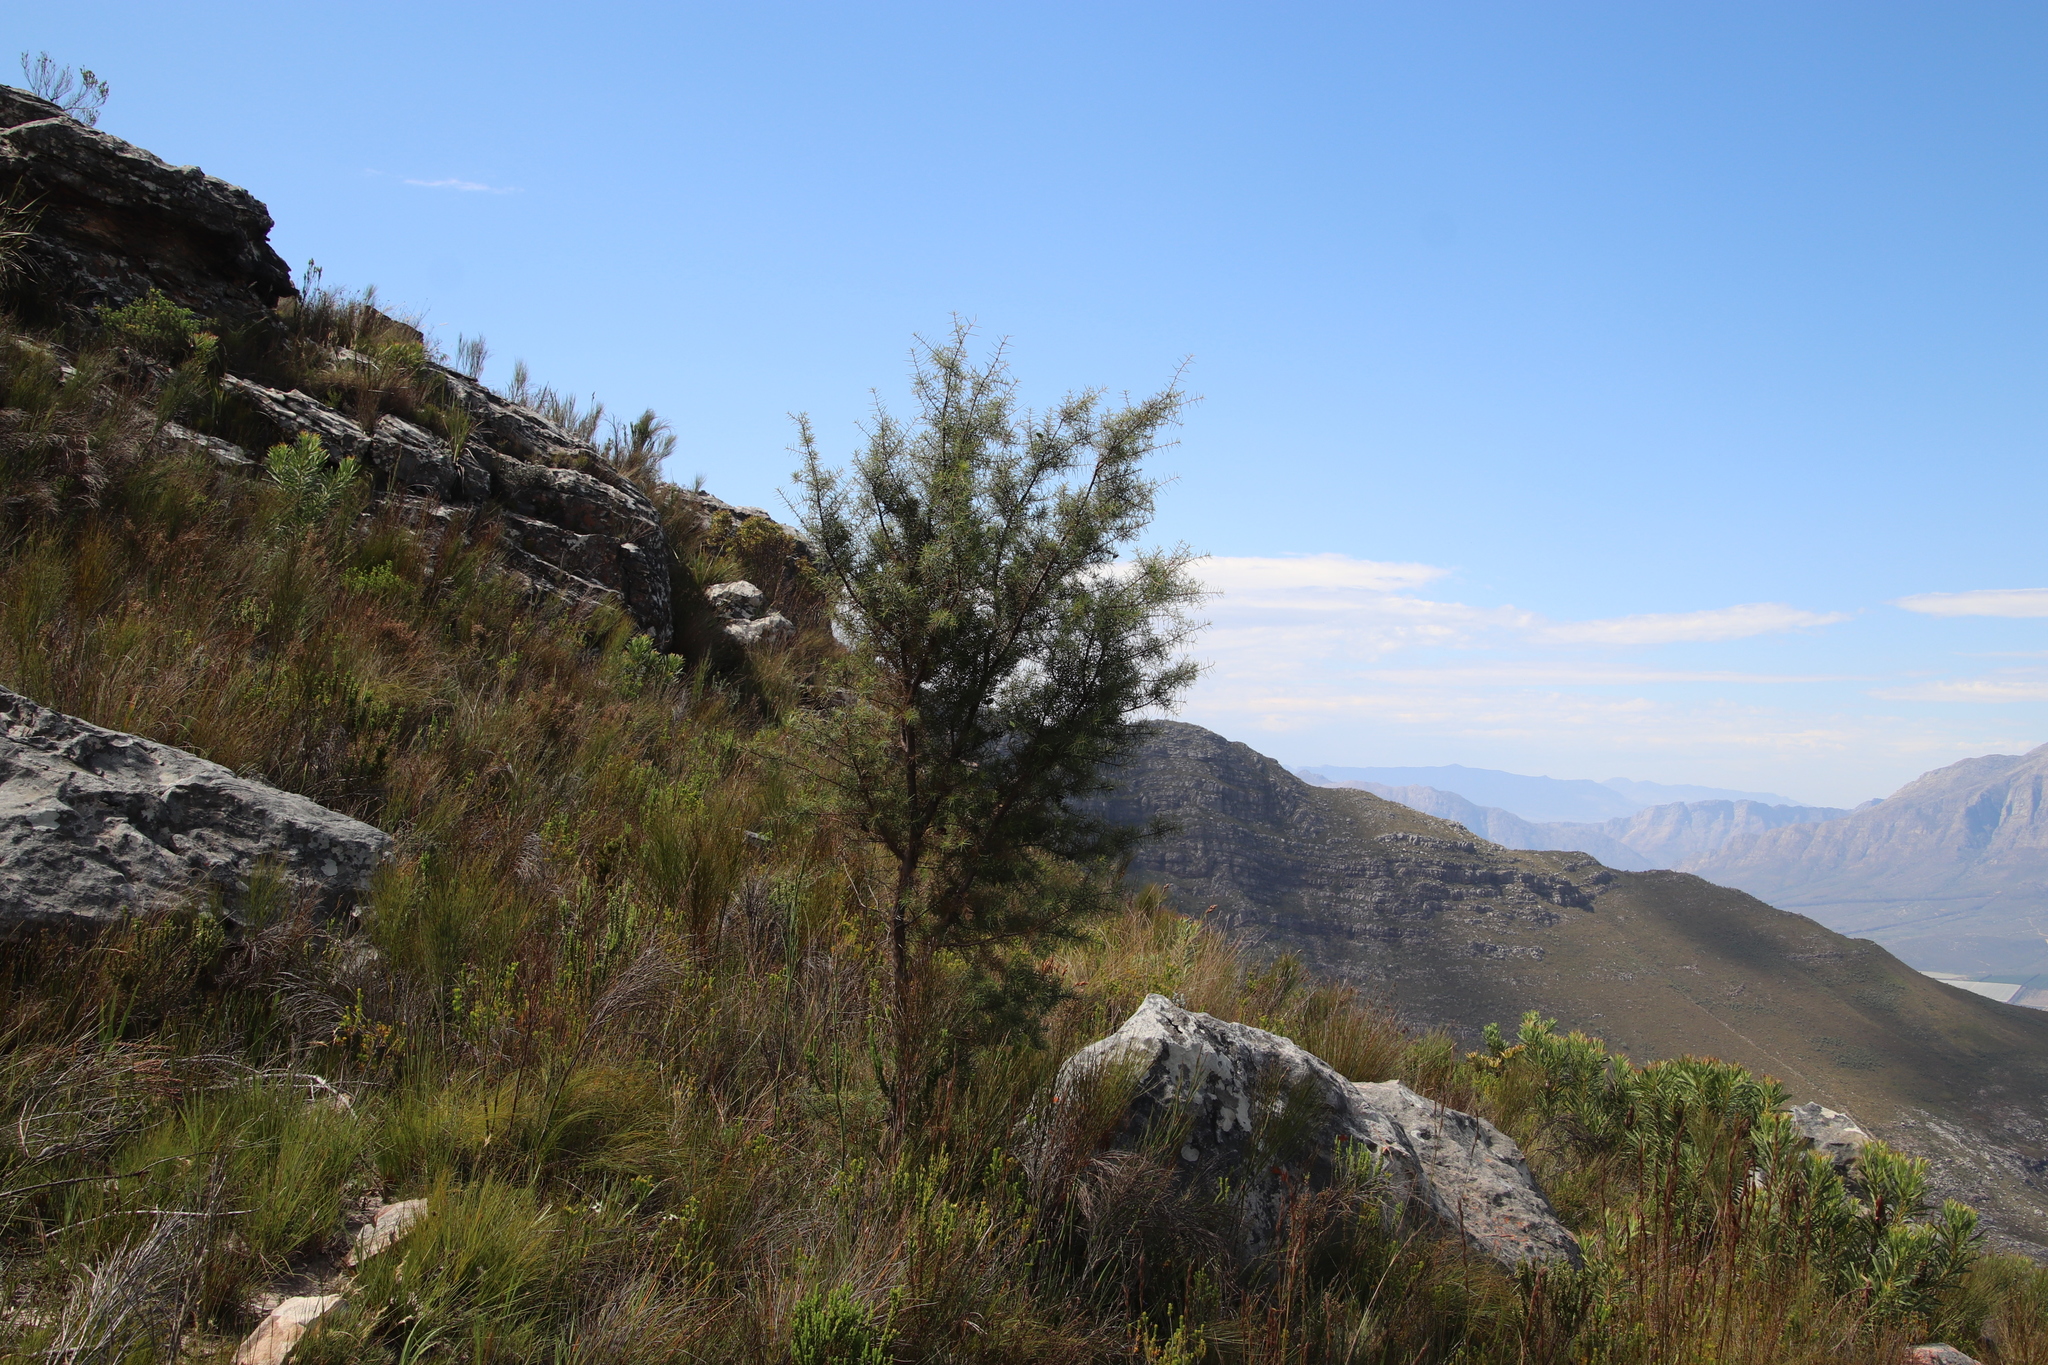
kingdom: Plantae
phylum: Tracheophyta
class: Magnoliopsida
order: Proteales
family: Proteaceae
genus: Hakea
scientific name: Hakea sericea
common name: Needle bush
